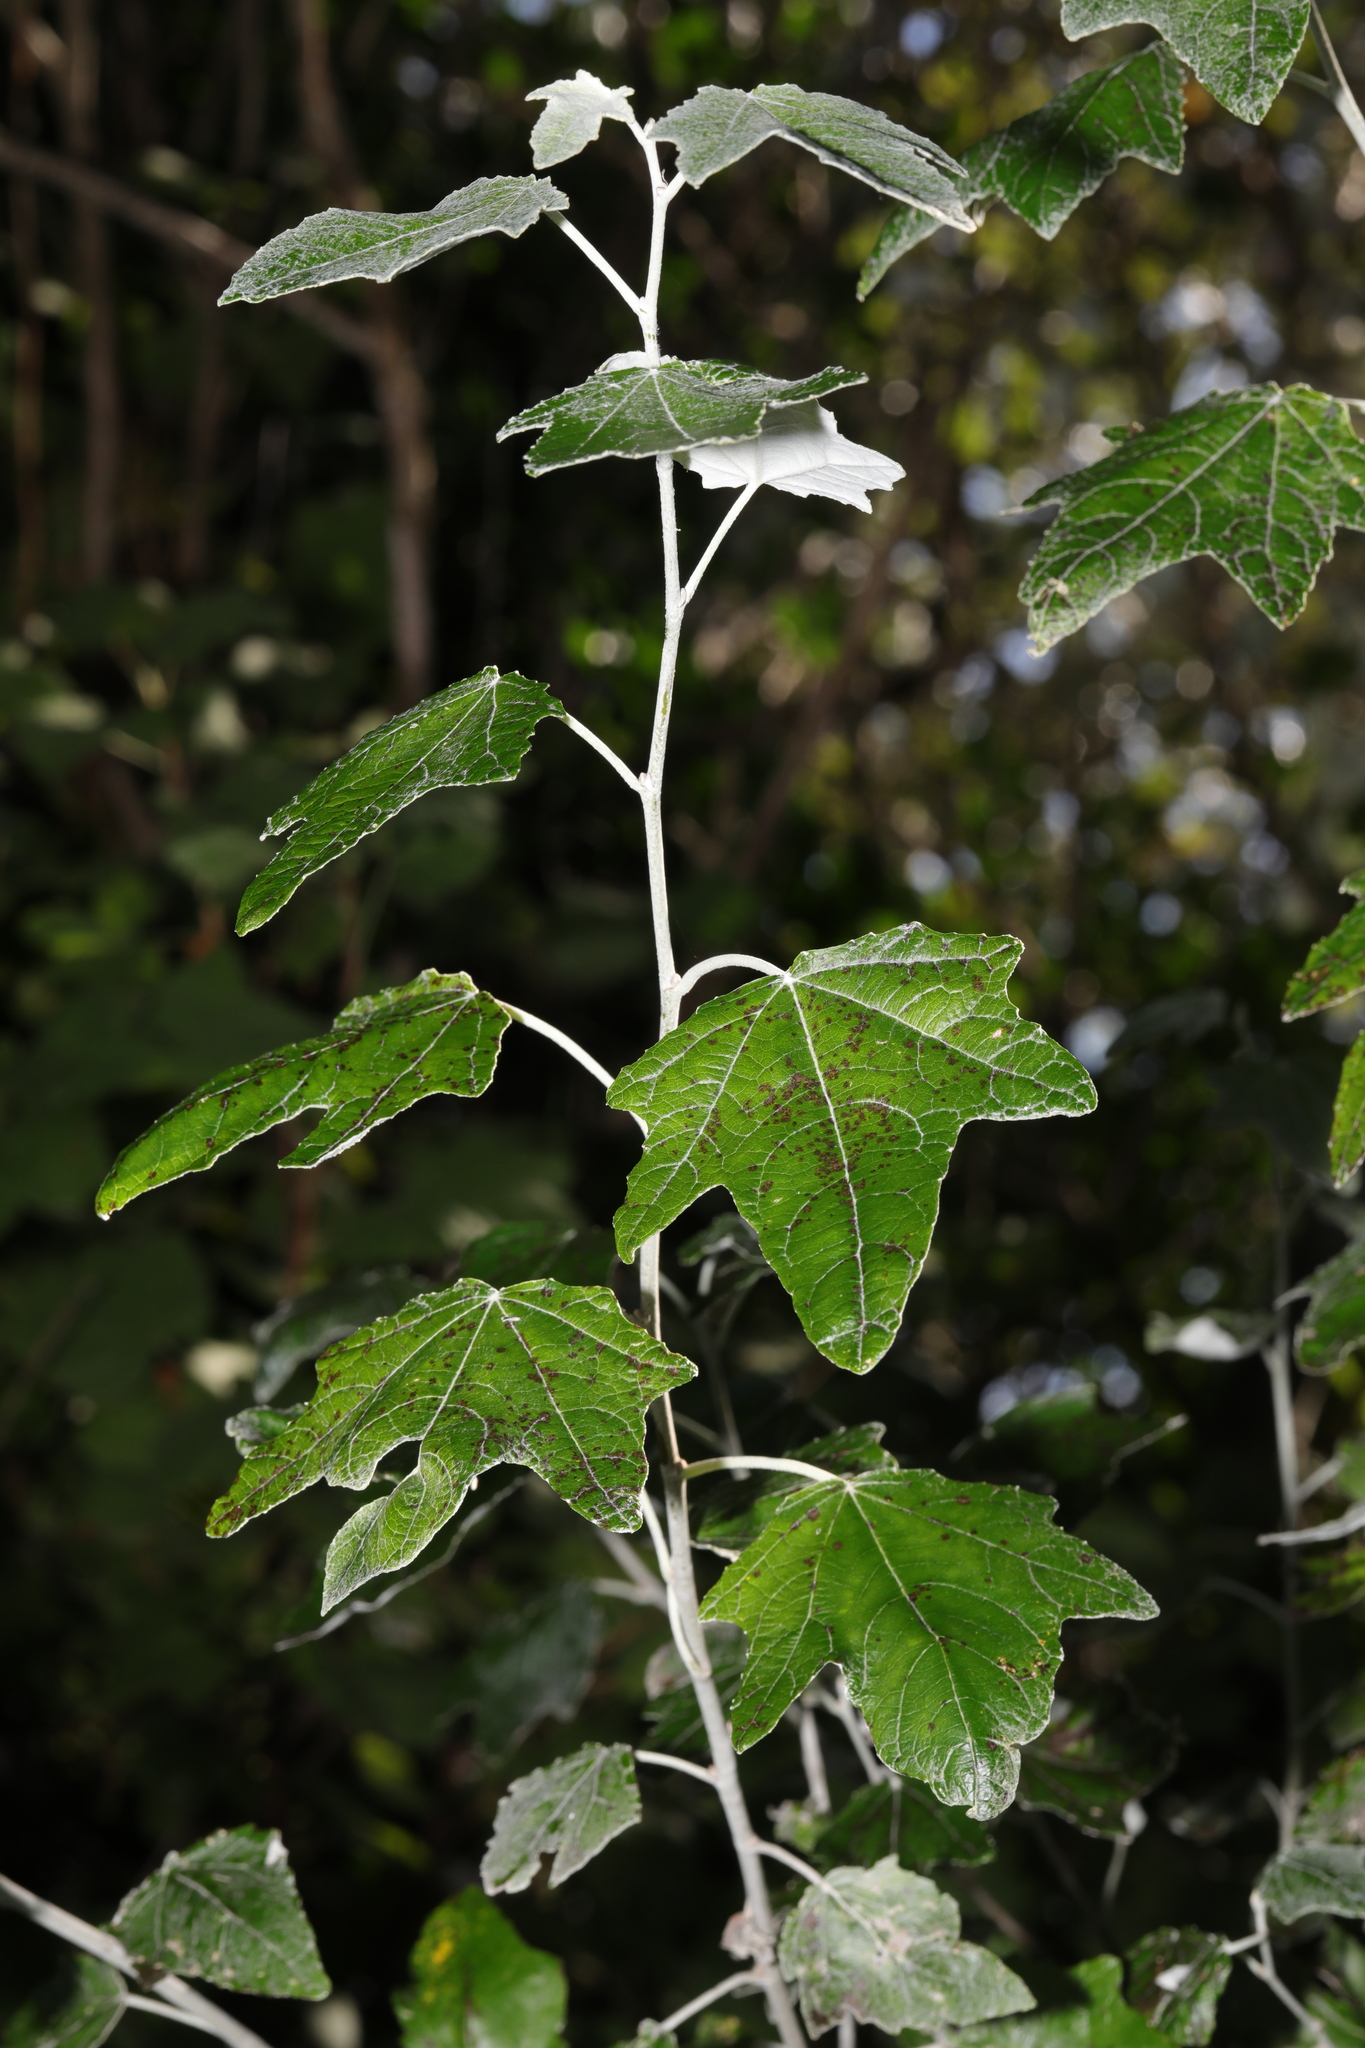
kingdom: Plantae
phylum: Tracheophyta
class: Magnoliopsida
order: Malpighiales
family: Salicaceae
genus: Populus
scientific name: Populus alba
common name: White poplar
